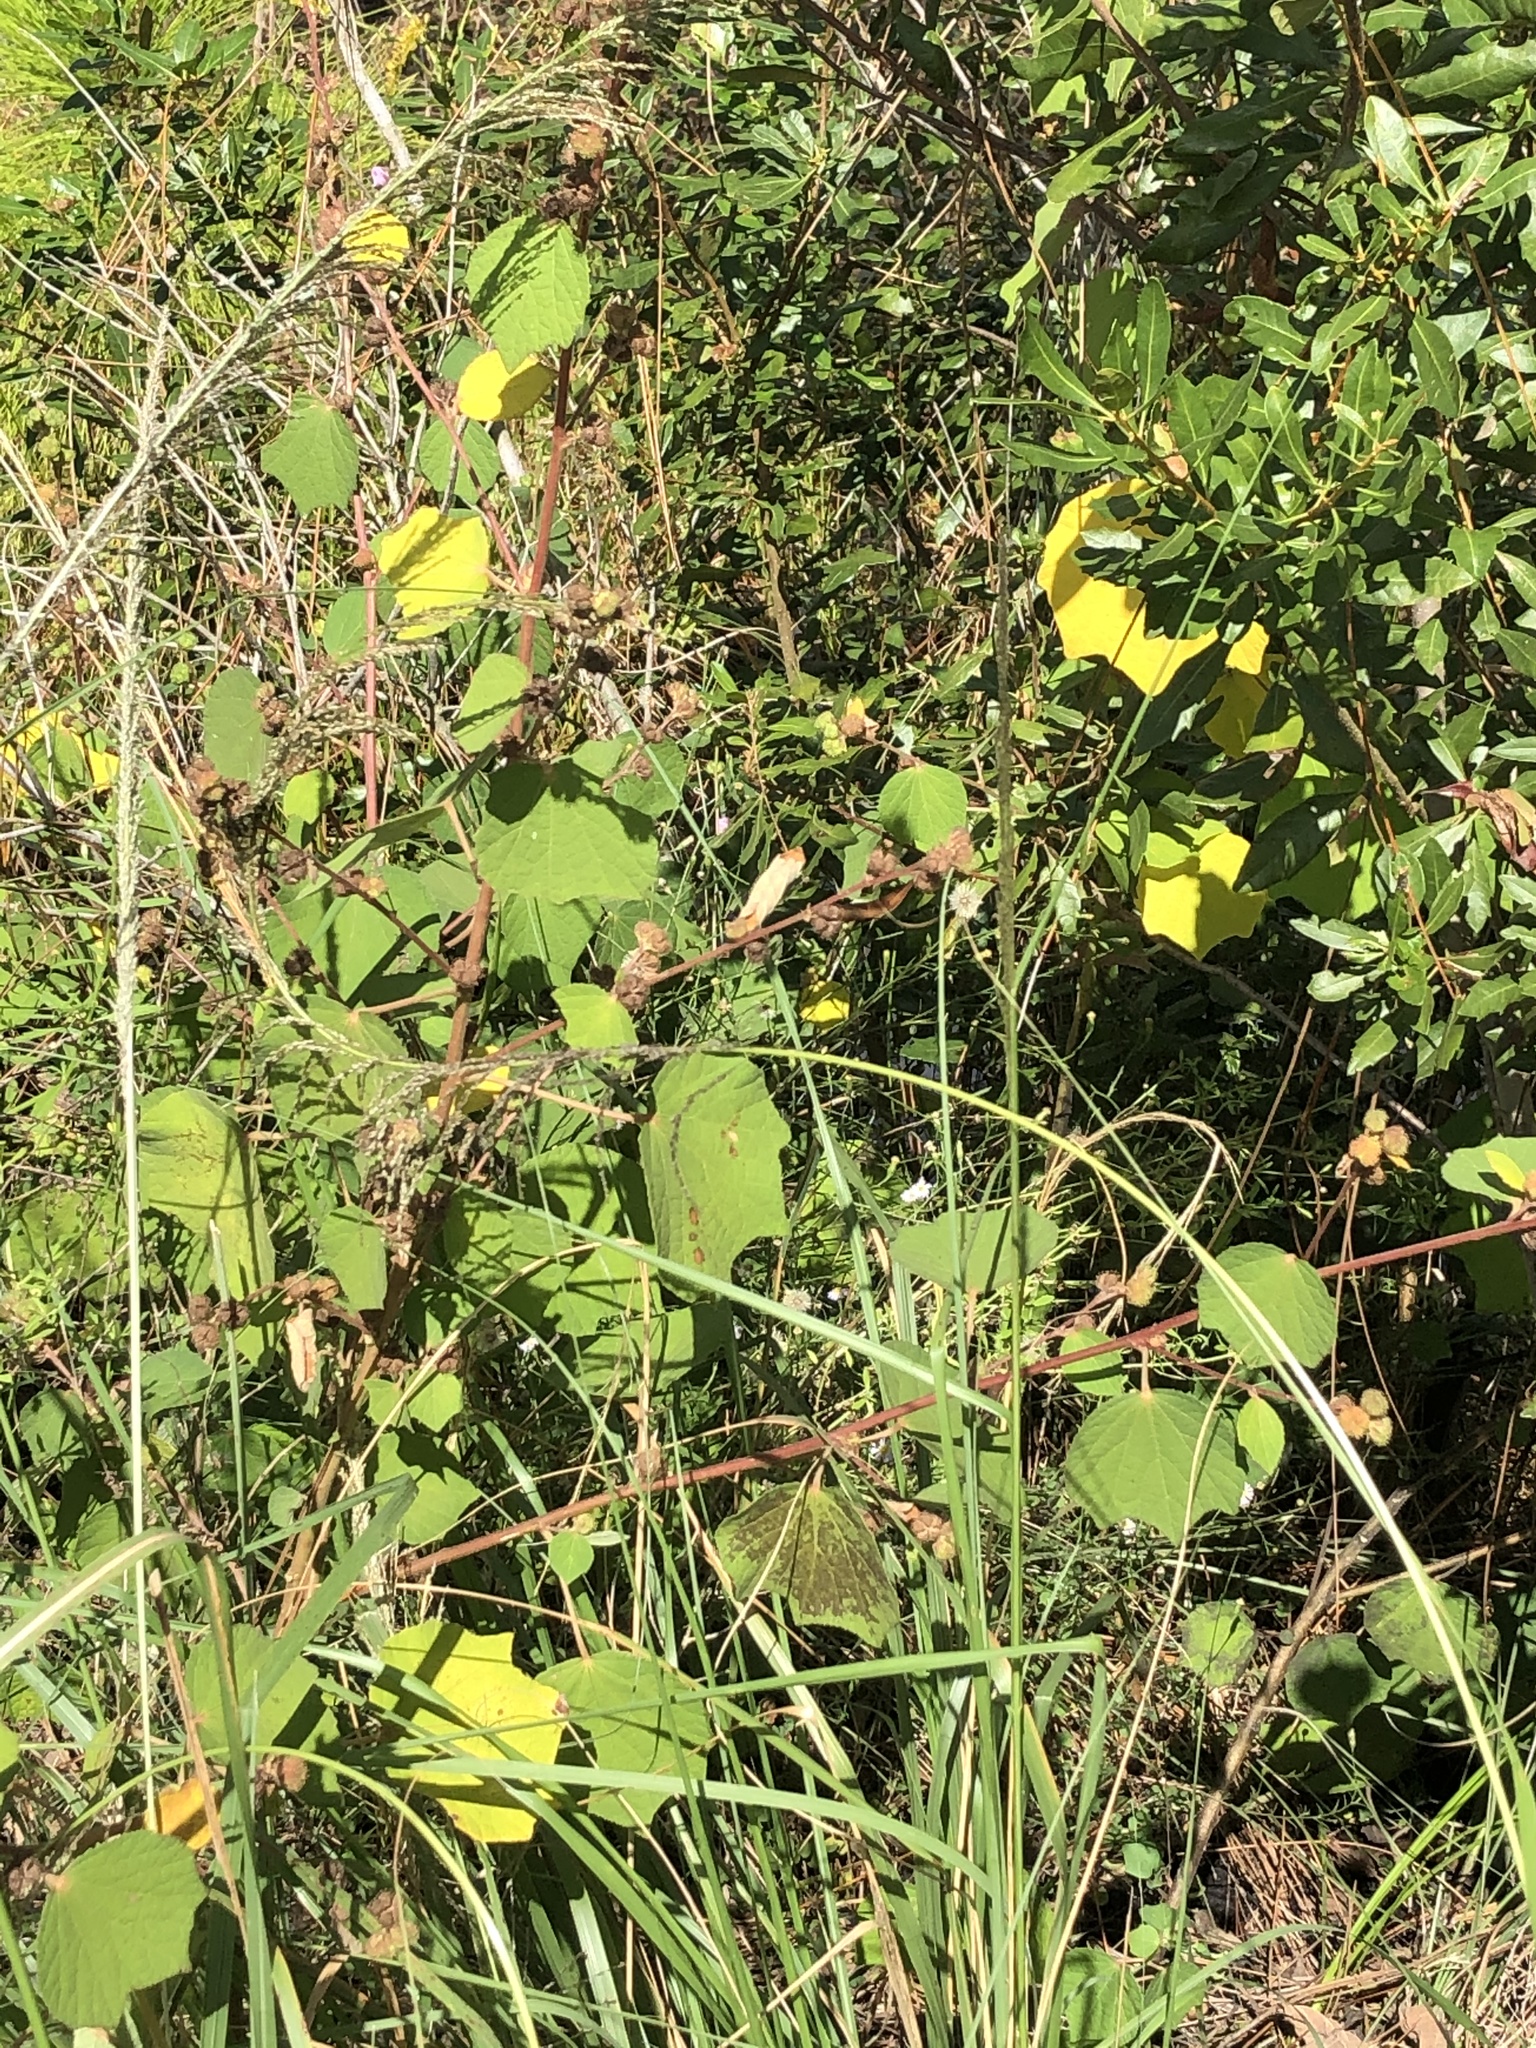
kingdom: Plantae
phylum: Tracheophyta
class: Magnoliopsida
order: Malvales
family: Malvaceae
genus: Urena
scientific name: Urena lobata
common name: Caesarweed
